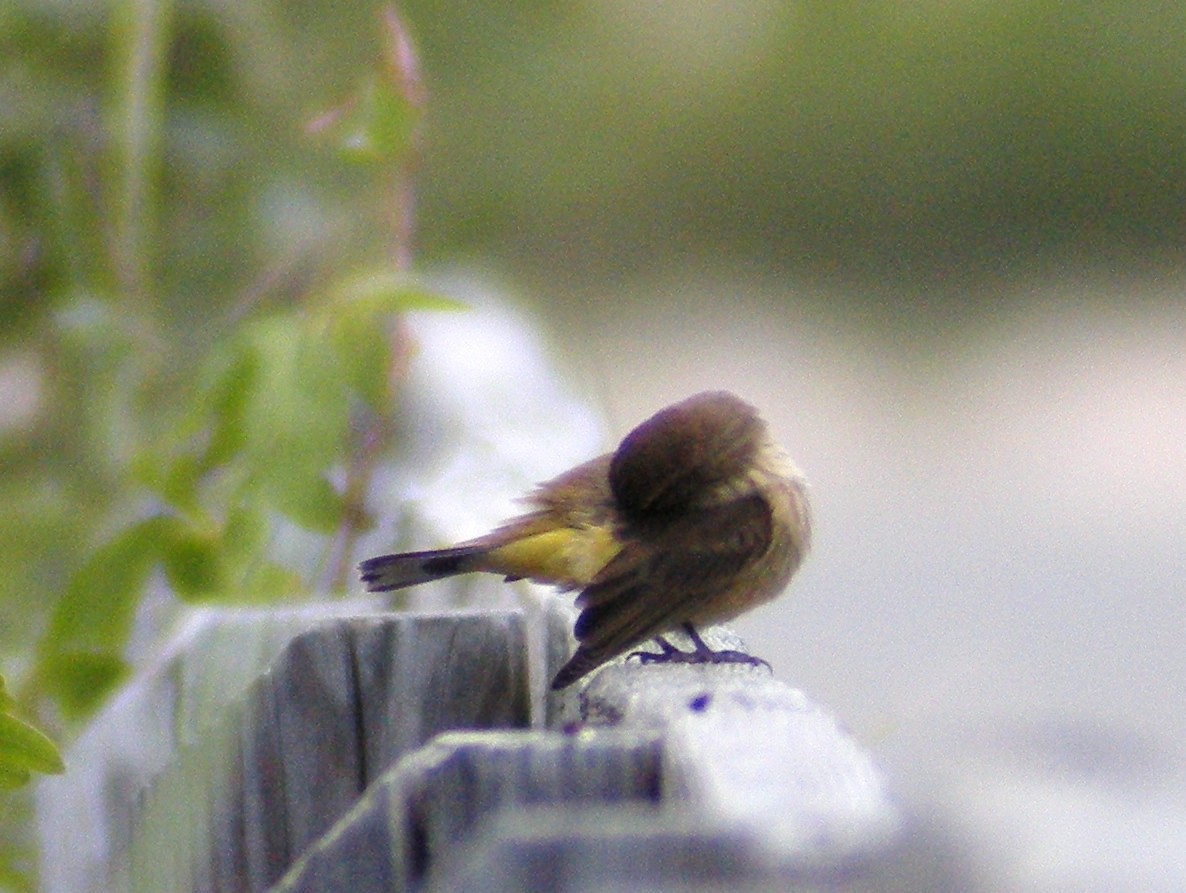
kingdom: Animalia
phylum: Chordata
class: Aves
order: Passeriformes
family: Parulidae
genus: Setophaga
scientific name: Setophaga palmarum
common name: Palm warbler
